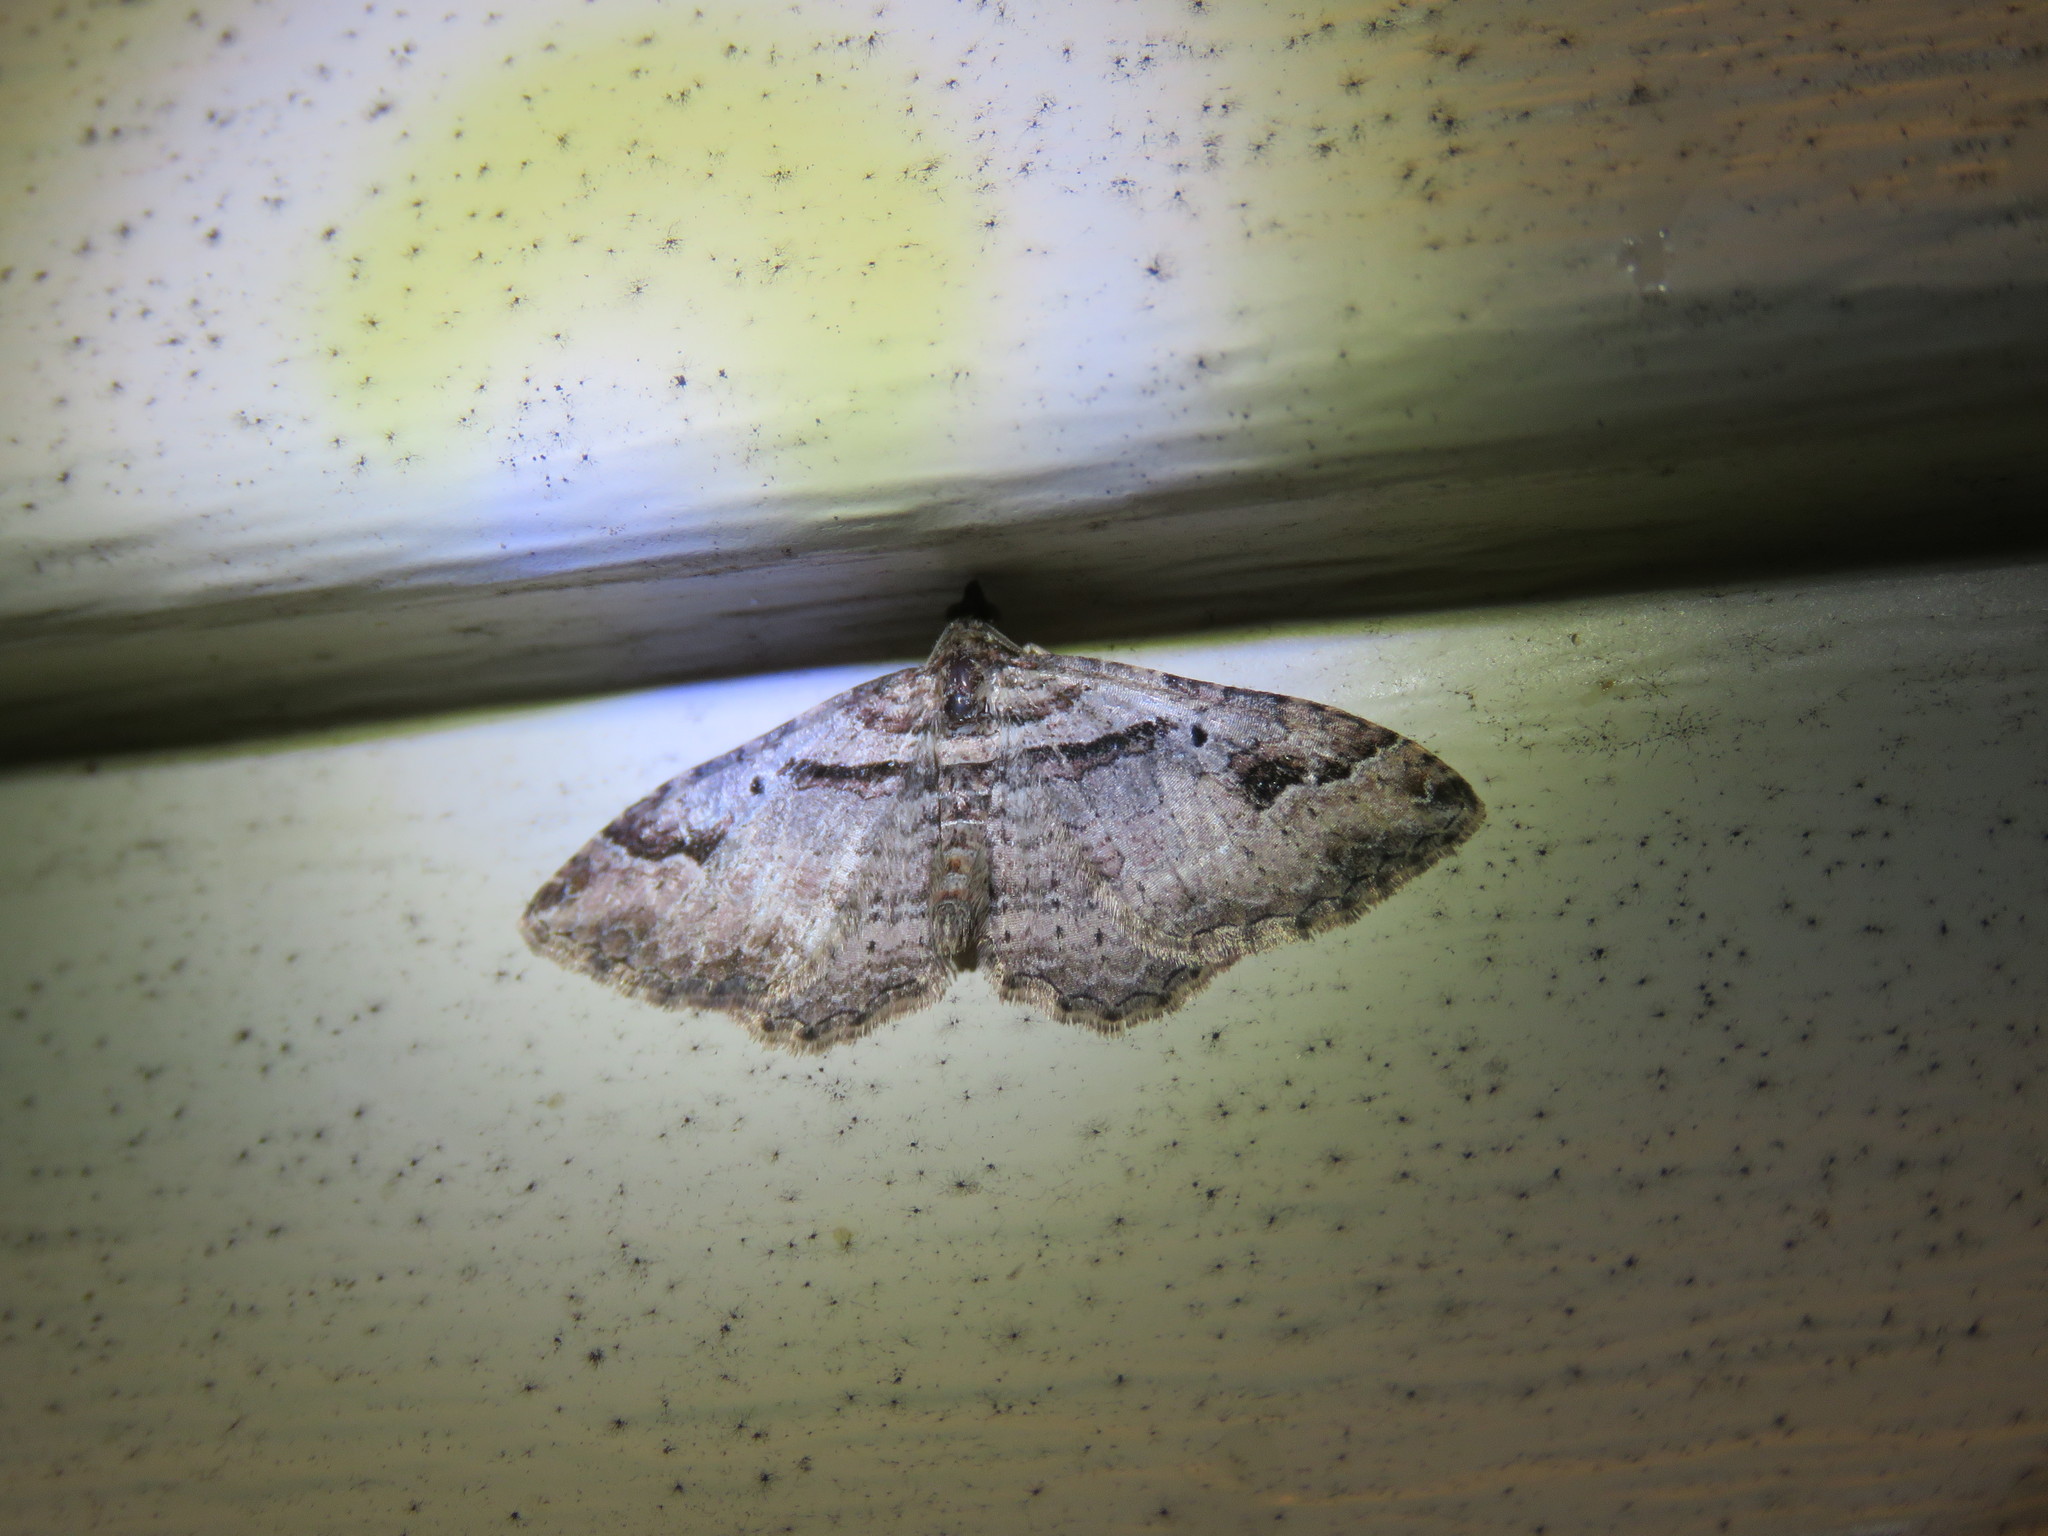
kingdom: Animalia
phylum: Arthropoda
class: Insecta
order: Lepidoptera
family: Geometridae
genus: Costaconvexa
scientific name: Costaconvexa centrostrigaria
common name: Bent-line carpet
